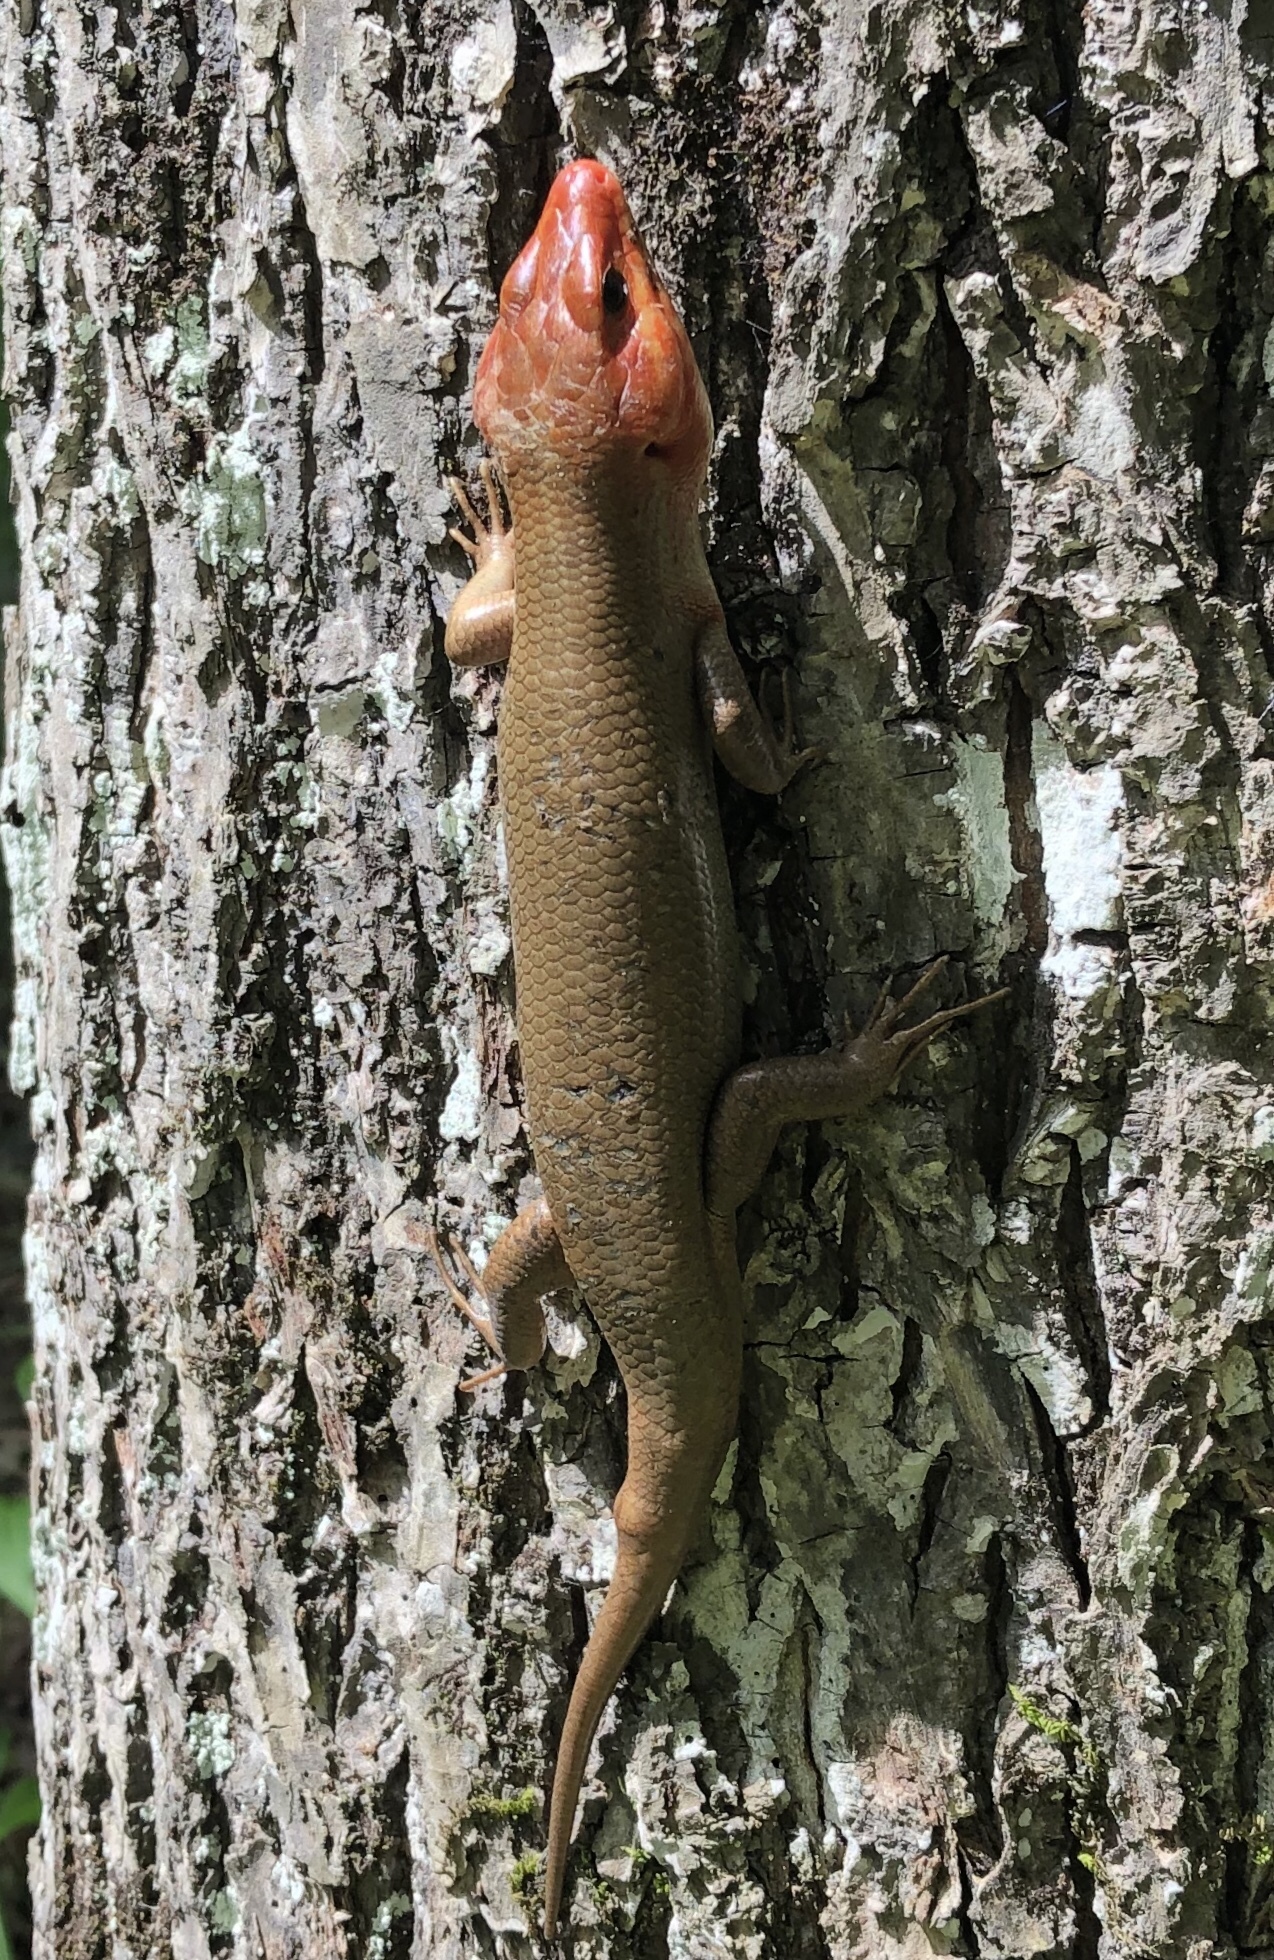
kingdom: Animalia
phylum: Chordata
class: Squamata
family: Scincidae
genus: Plestiodon
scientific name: Plestiodon laticeps
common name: Broadhead skink
